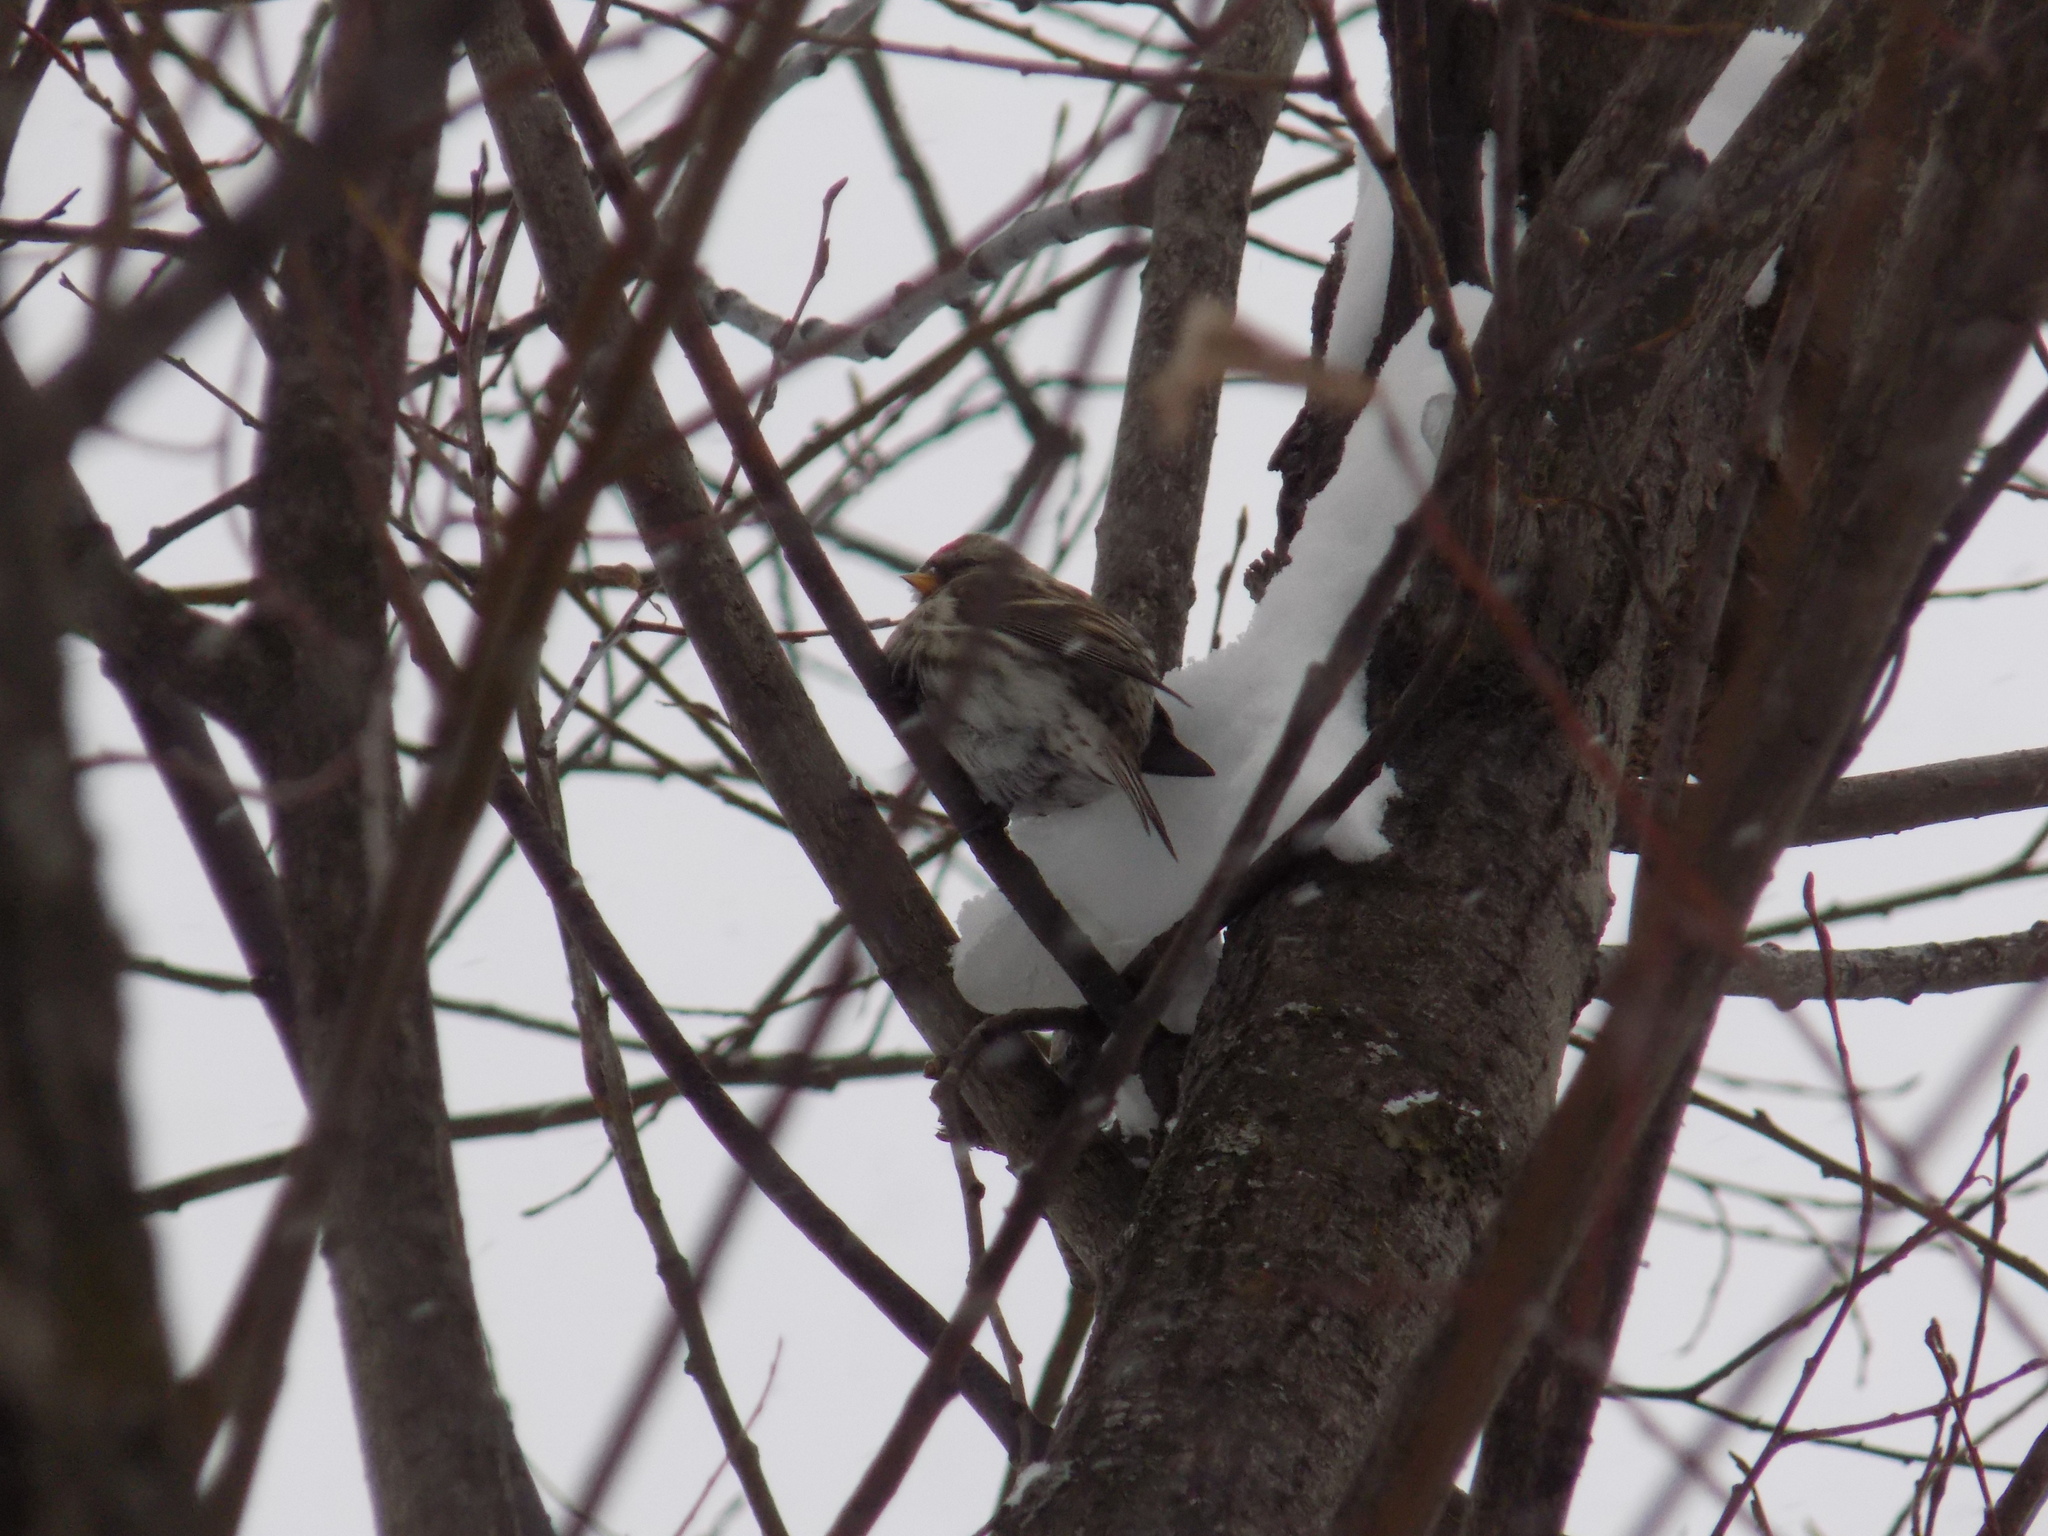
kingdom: Animalia
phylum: Chordata
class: Aves
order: Passeriformes
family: Fringillidae
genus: Acanthis
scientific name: Acanthis flammea
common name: Common redpoll
